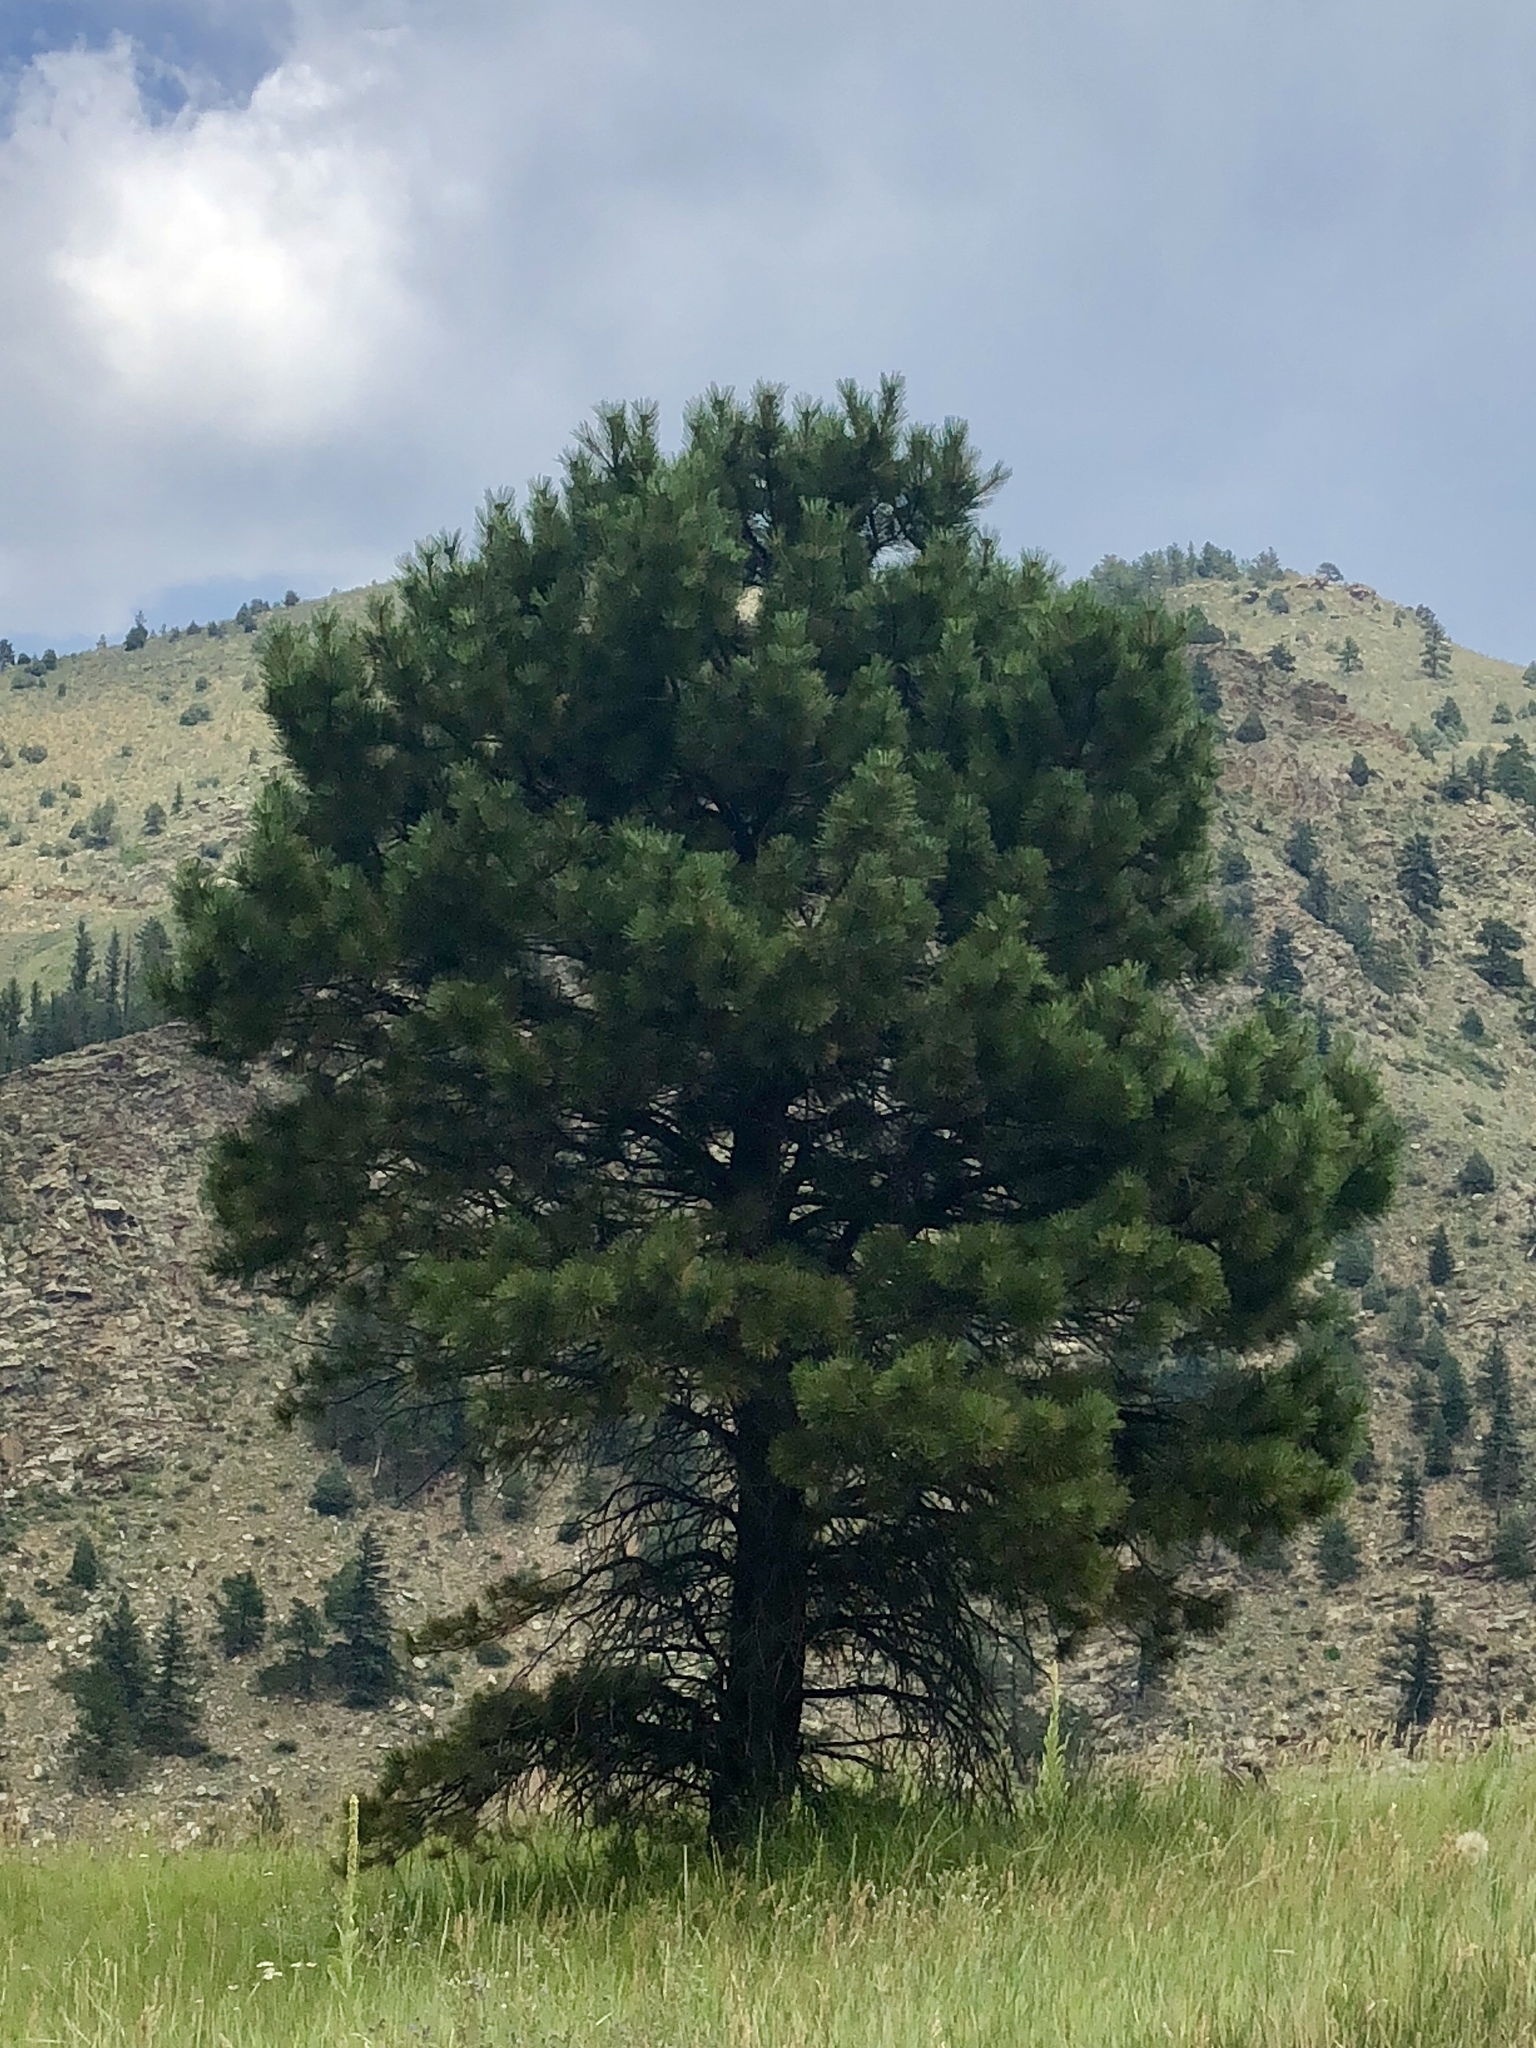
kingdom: Plantae
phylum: Tracheophyta
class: Pinopsida
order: Pinales
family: Pinaceae
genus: Pinus
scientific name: Pinus ponderosa
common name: Western yellow-pine
